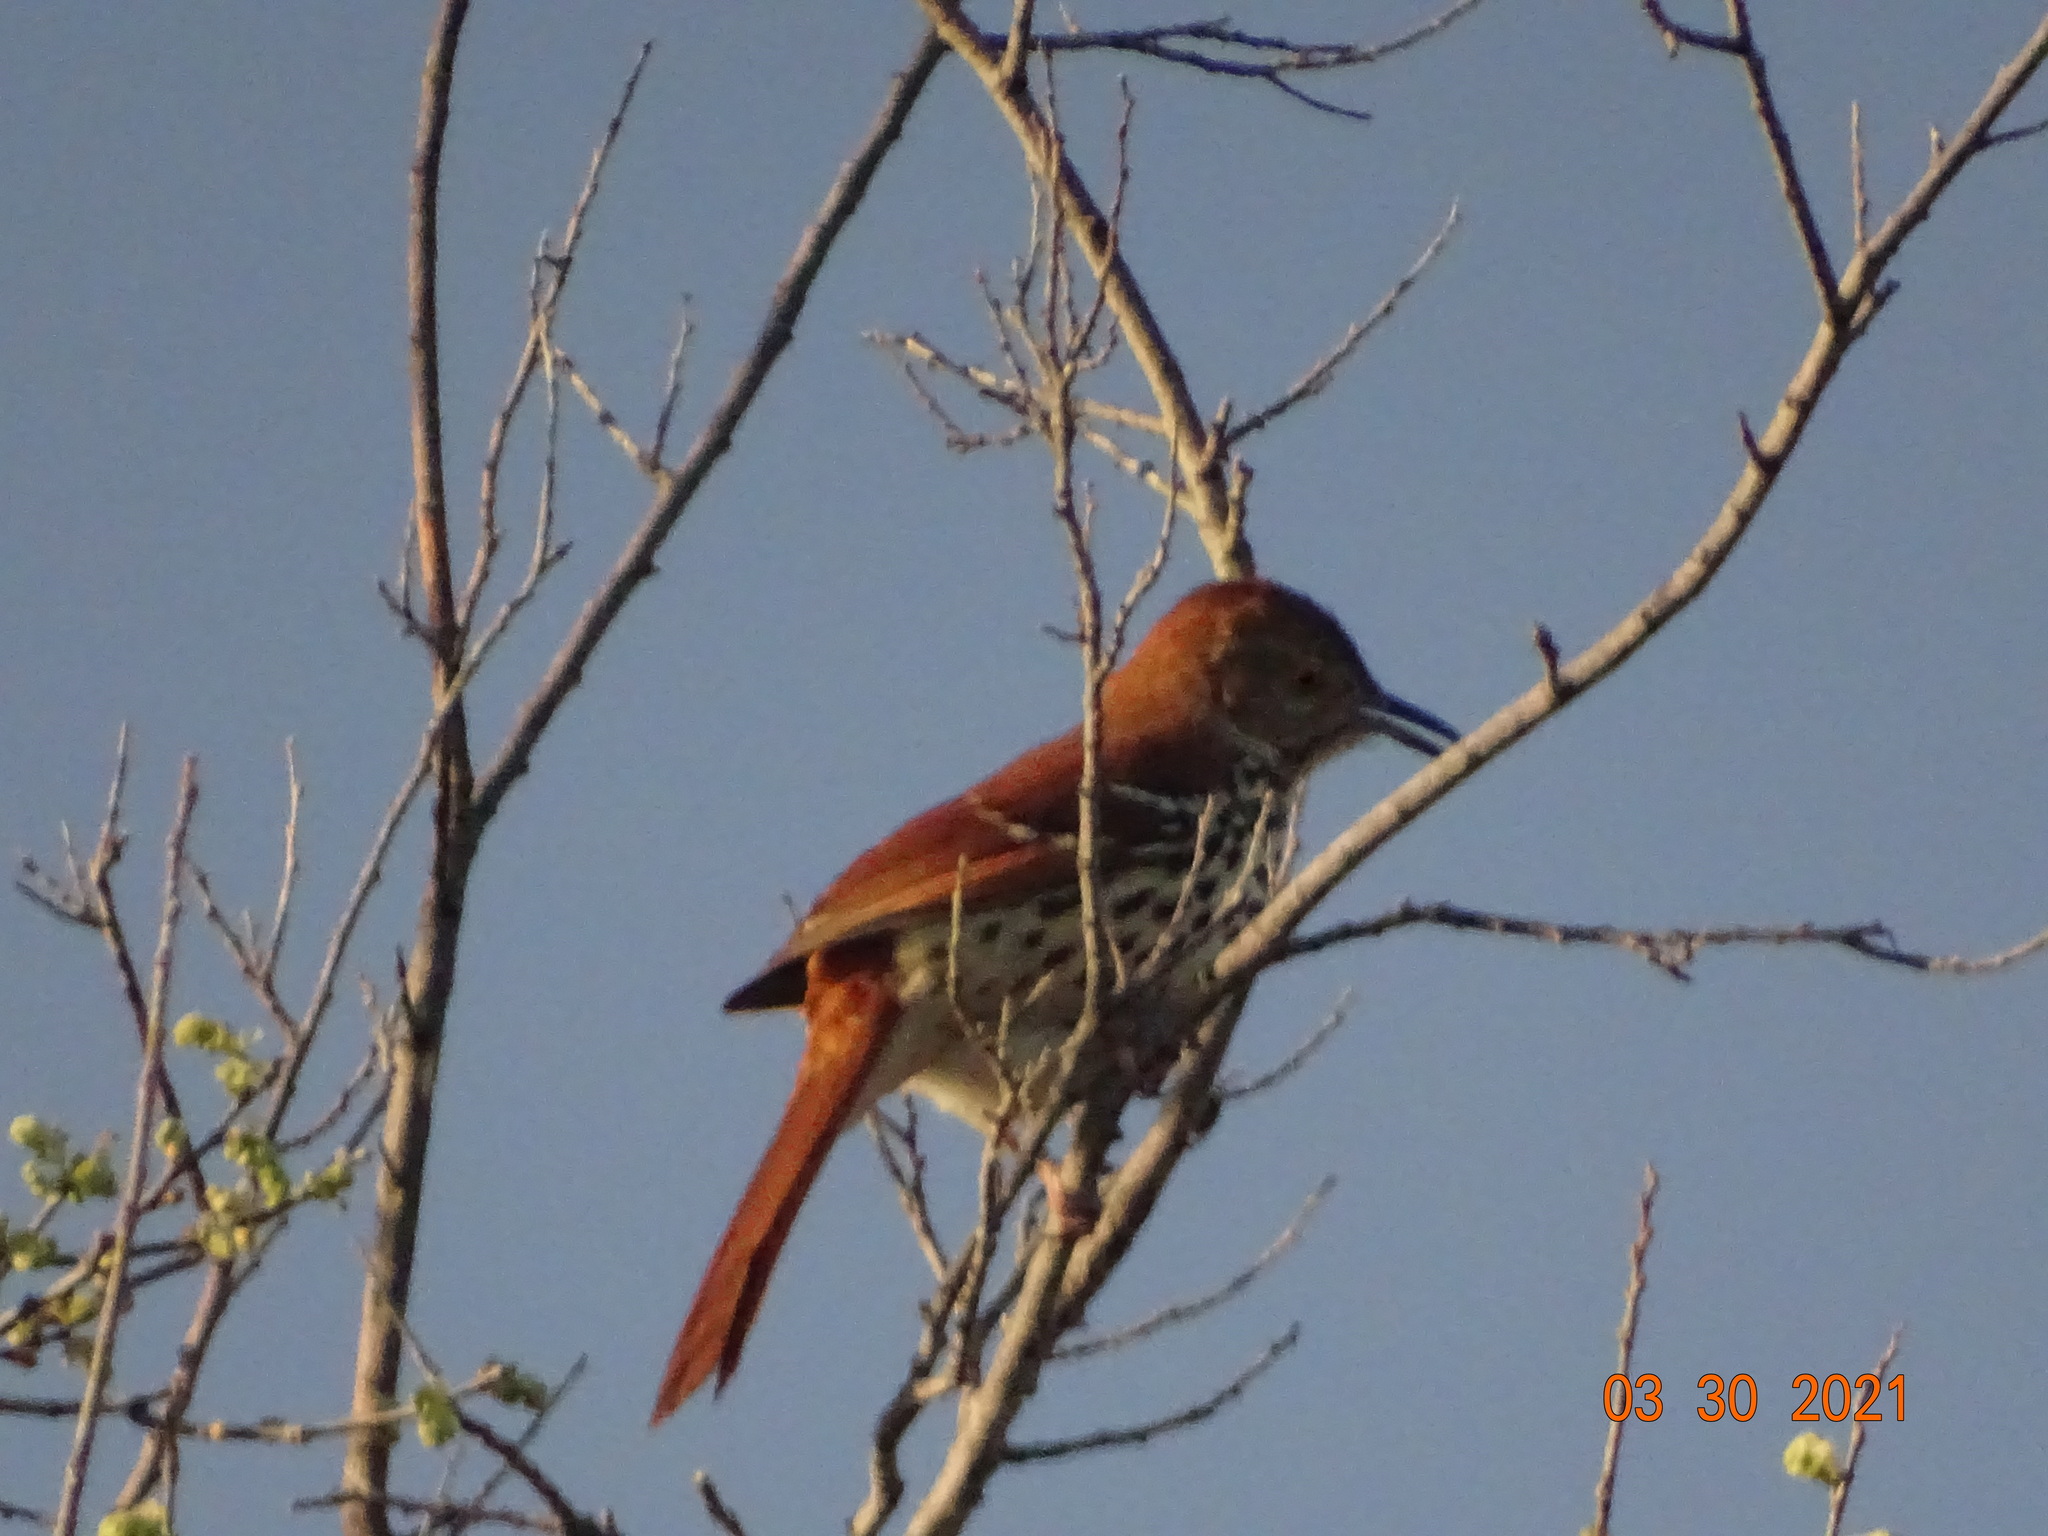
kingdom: Animalia
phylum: Chordata
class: Aves
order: Passeriformes
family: Mimidae
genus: Toxostoma
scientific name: Toxostoma rufum
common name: Brown thrasher
